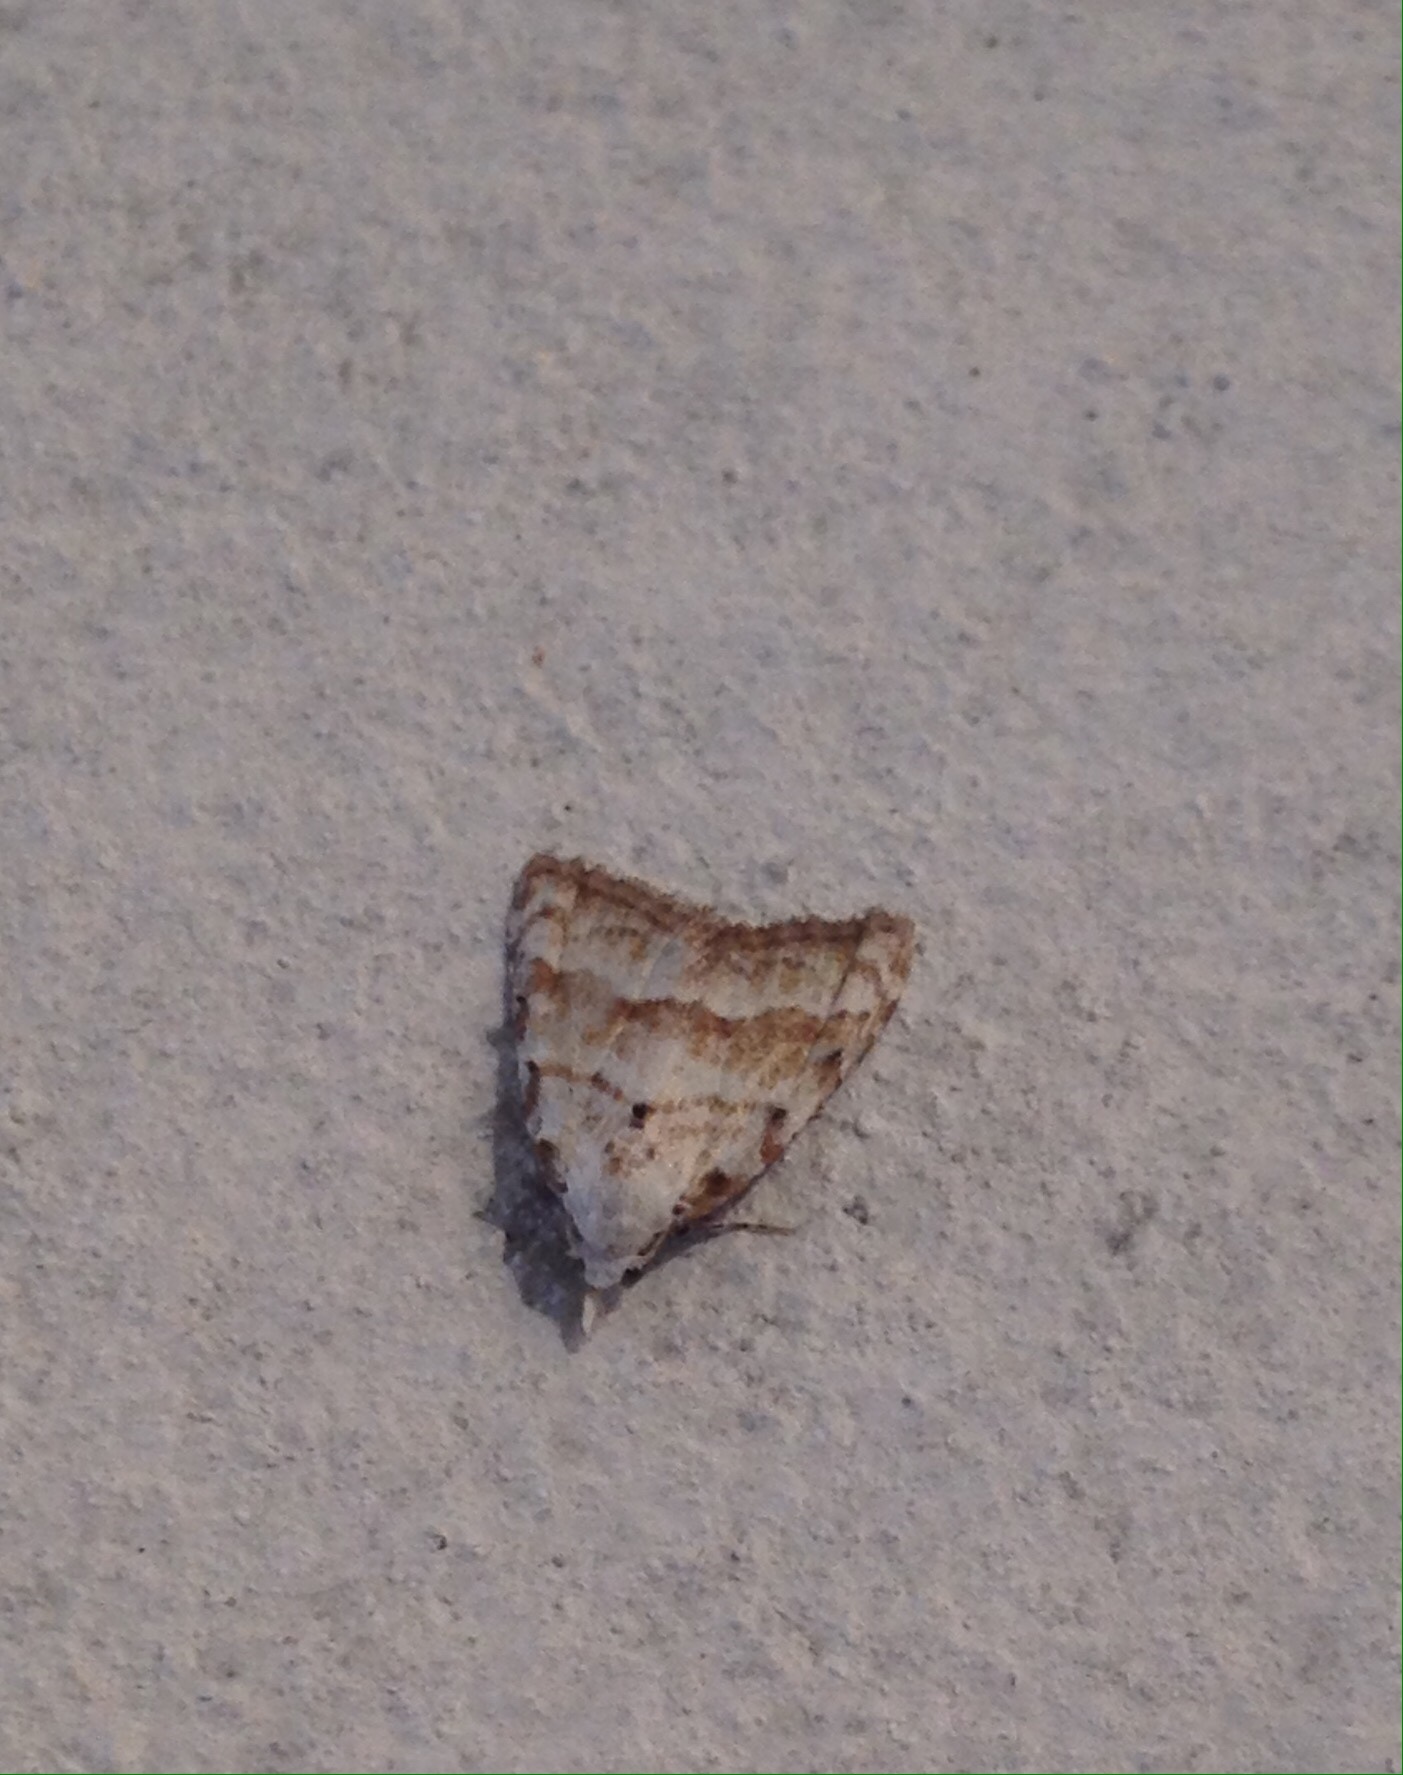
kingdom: Animalia
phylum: Arthropoda
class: Insecta
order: Lepidoptera
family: Nolidae
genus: Nola
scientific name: Nola aerugula
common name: Scarce black arches
